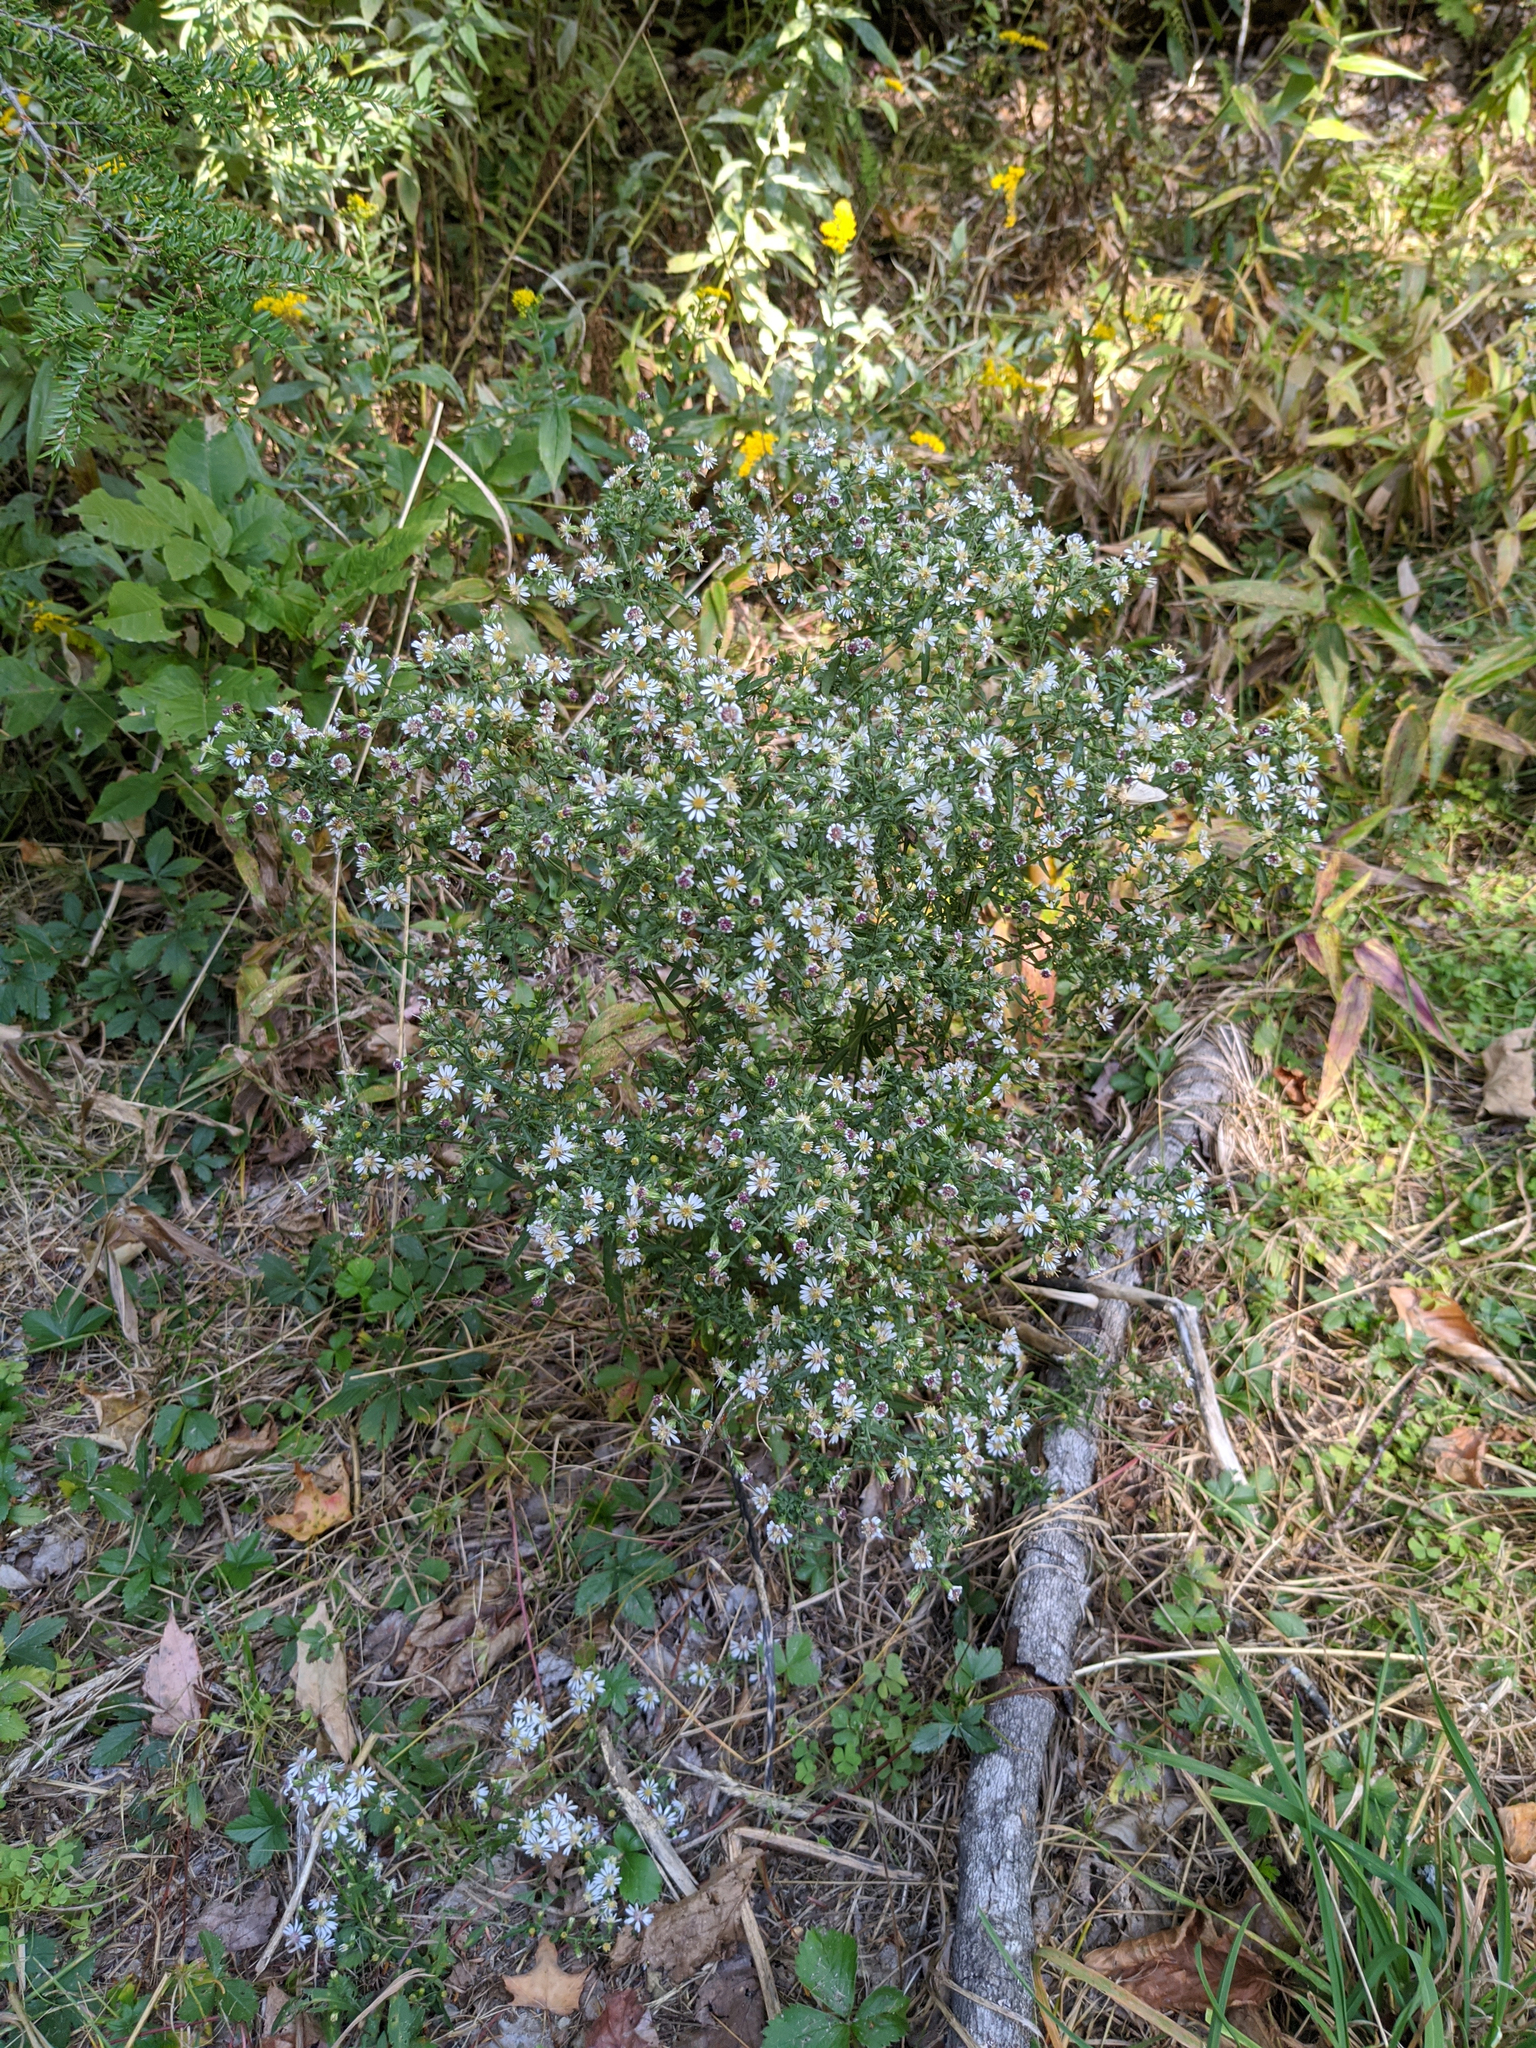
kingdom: Plantae
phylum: Tracheophyta
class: Magnoliopsida
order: Asterales
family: Asteraceae
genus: Symphyotrichum
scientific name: Symphyotrichum lateriflorum
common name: Calico aster
